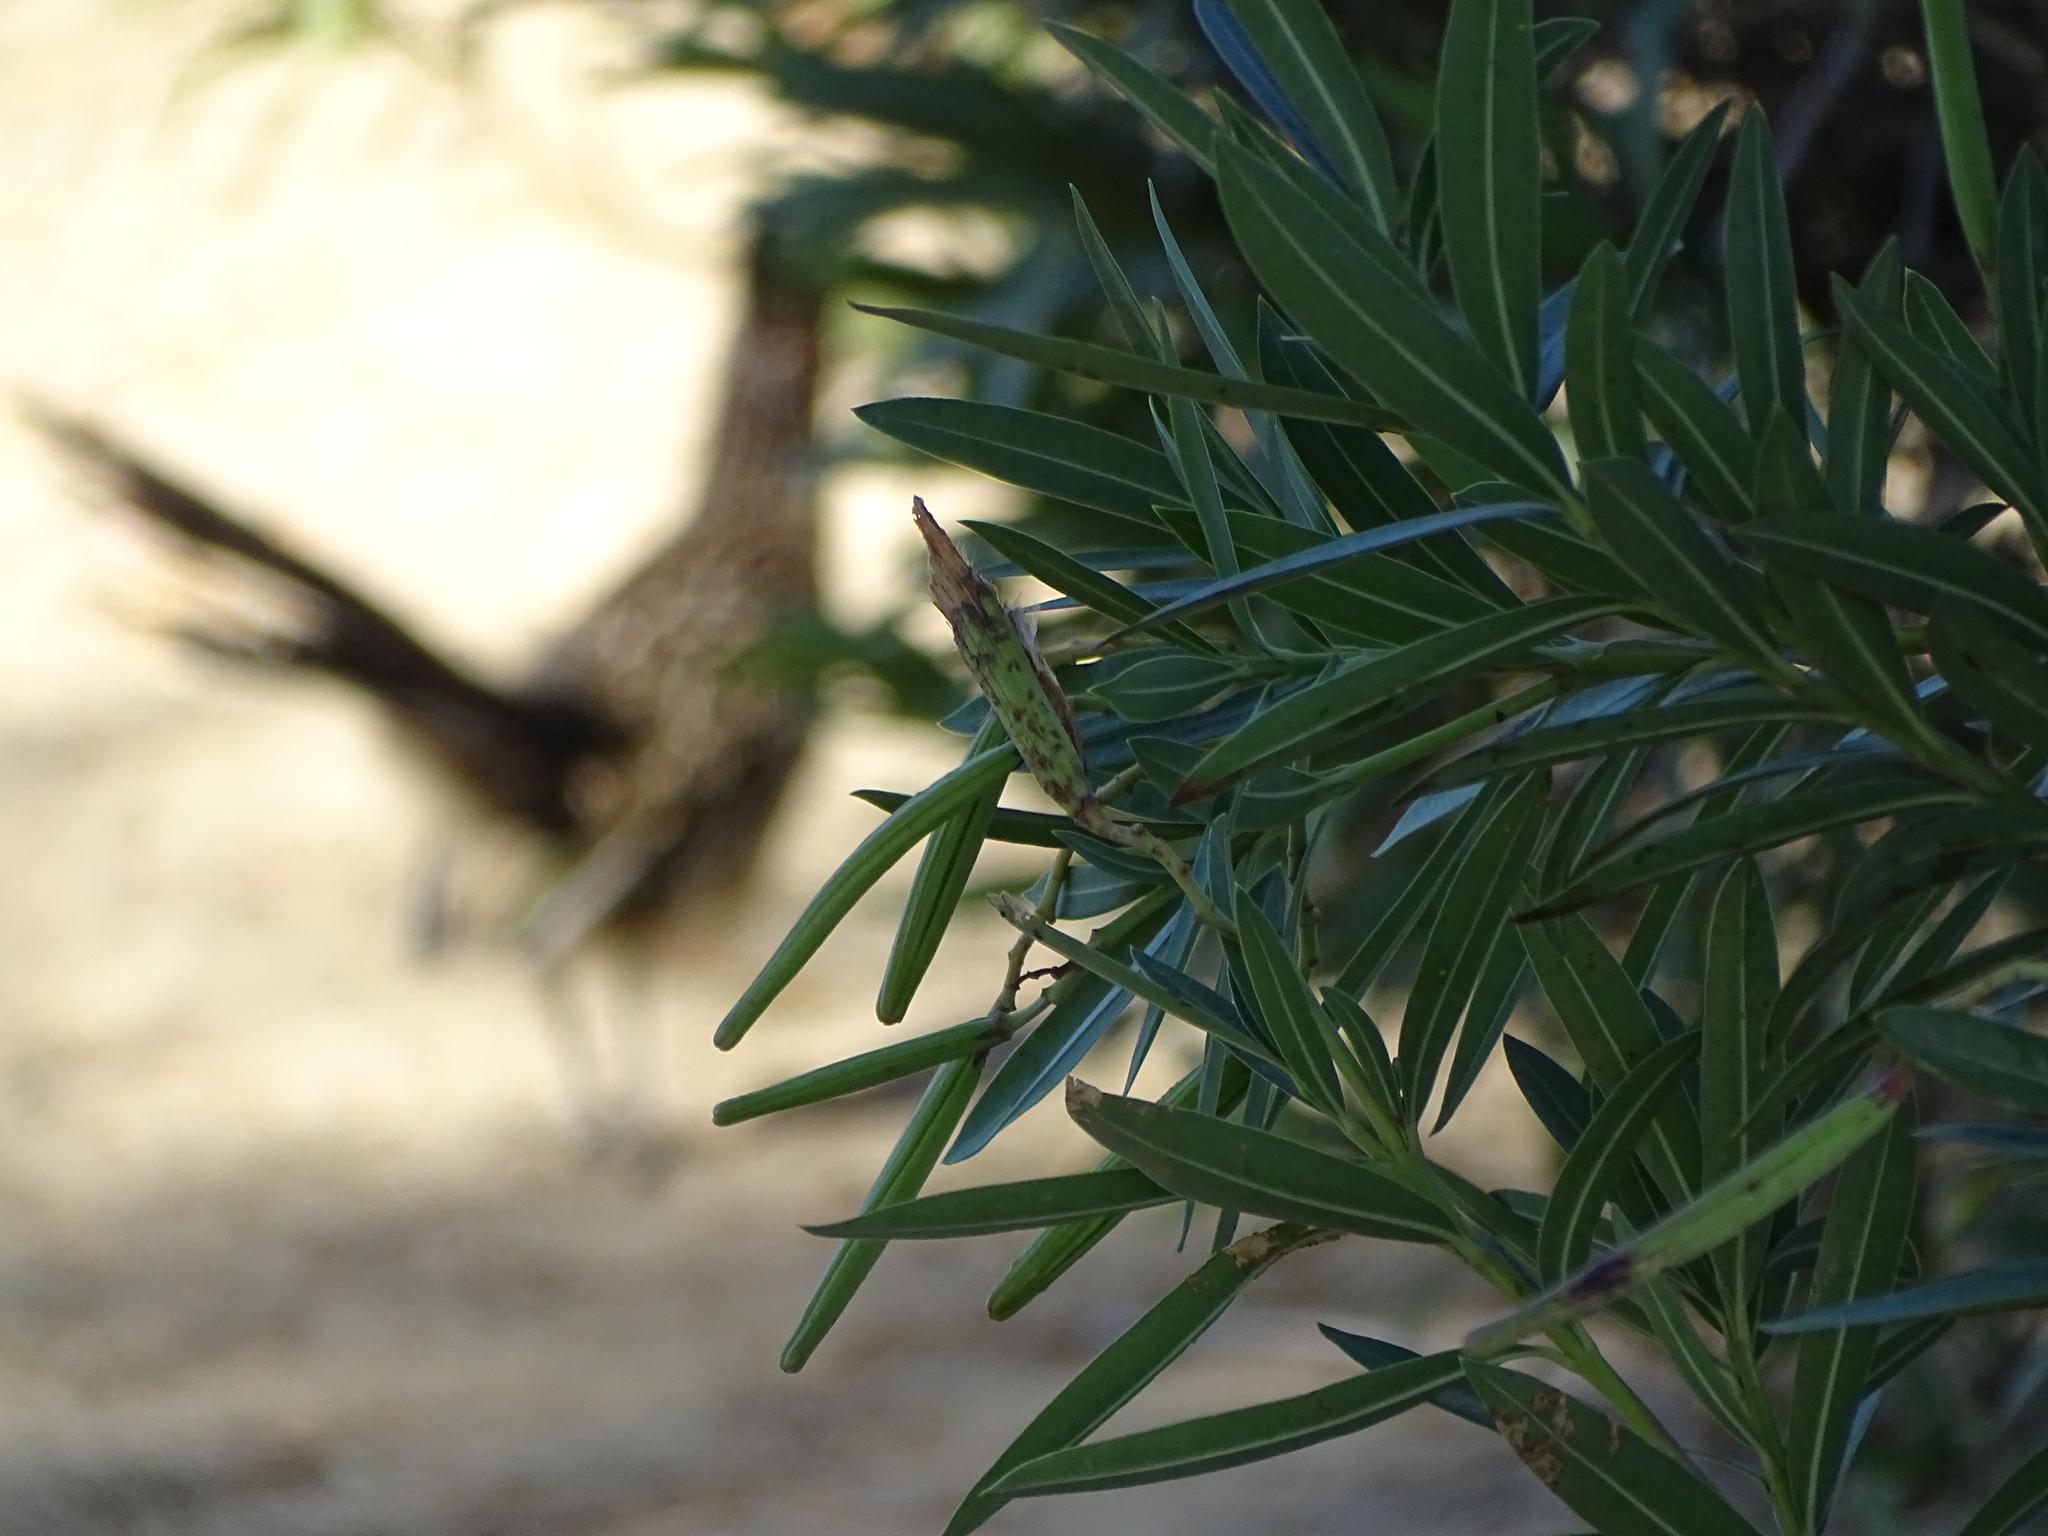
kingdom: Animalia
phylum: Chordata
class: Aves
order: Cuculiformes
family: Cuculidae
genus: Geococcyx
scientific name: Geococcyx californianus
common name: Greater roadrunner
